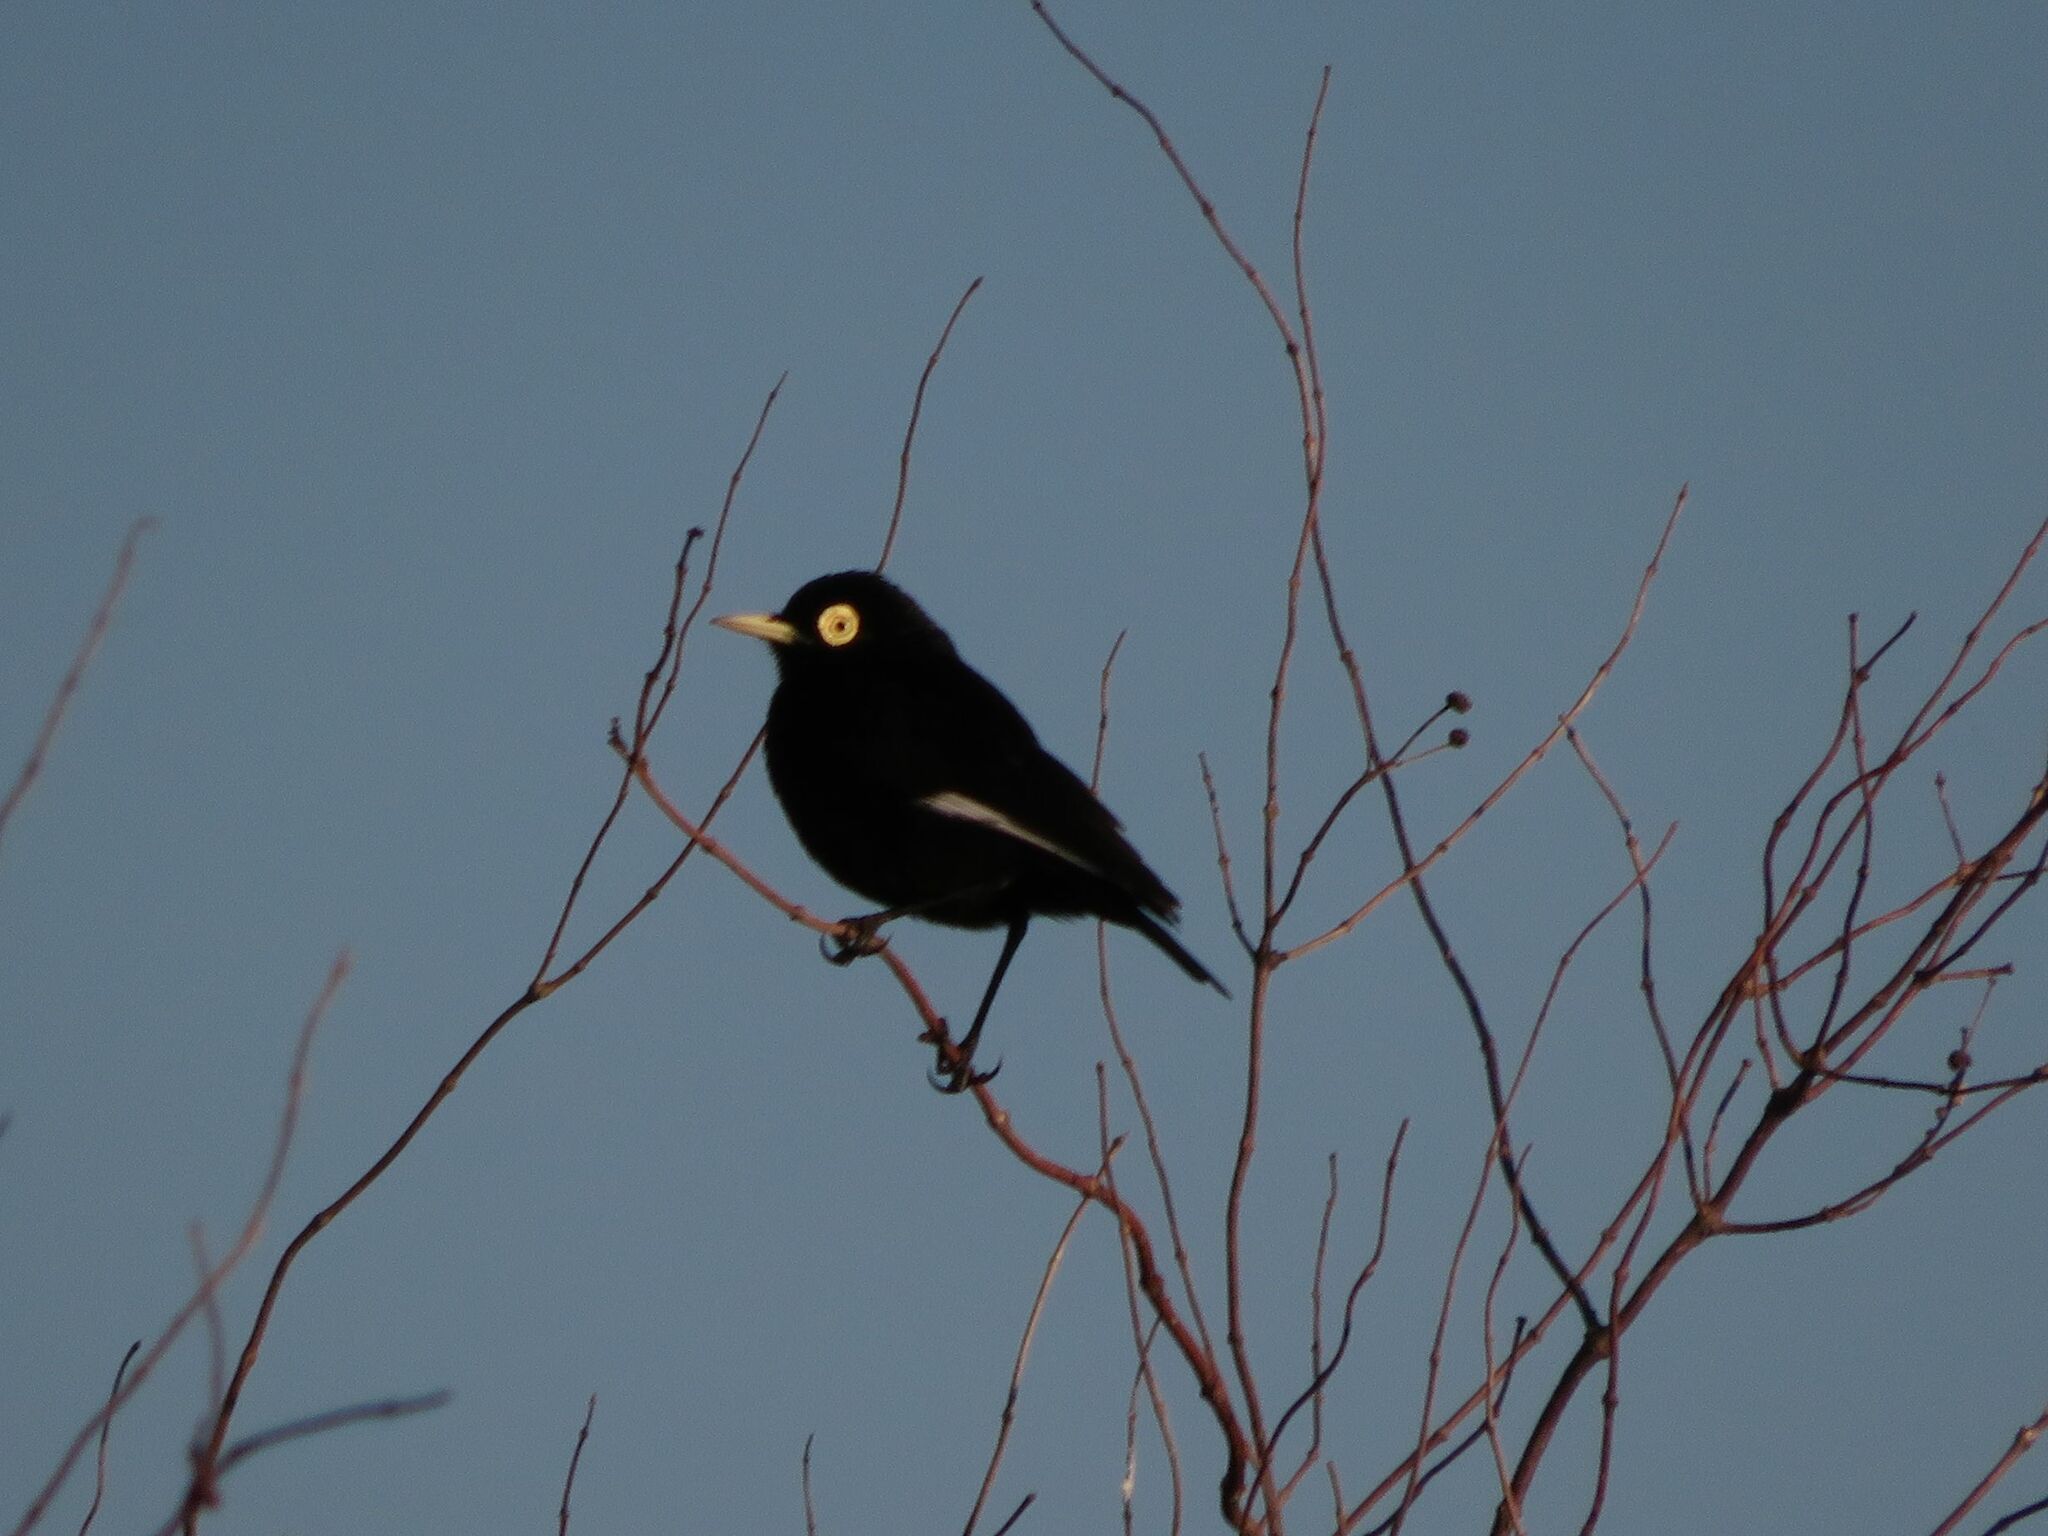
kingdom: Animalia
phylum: Chordata
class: Aves
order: Passeriformes
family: Tyrannidae
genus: Hymenops
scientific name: Hymenops perspicillatus
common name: Spectacled tyrant
